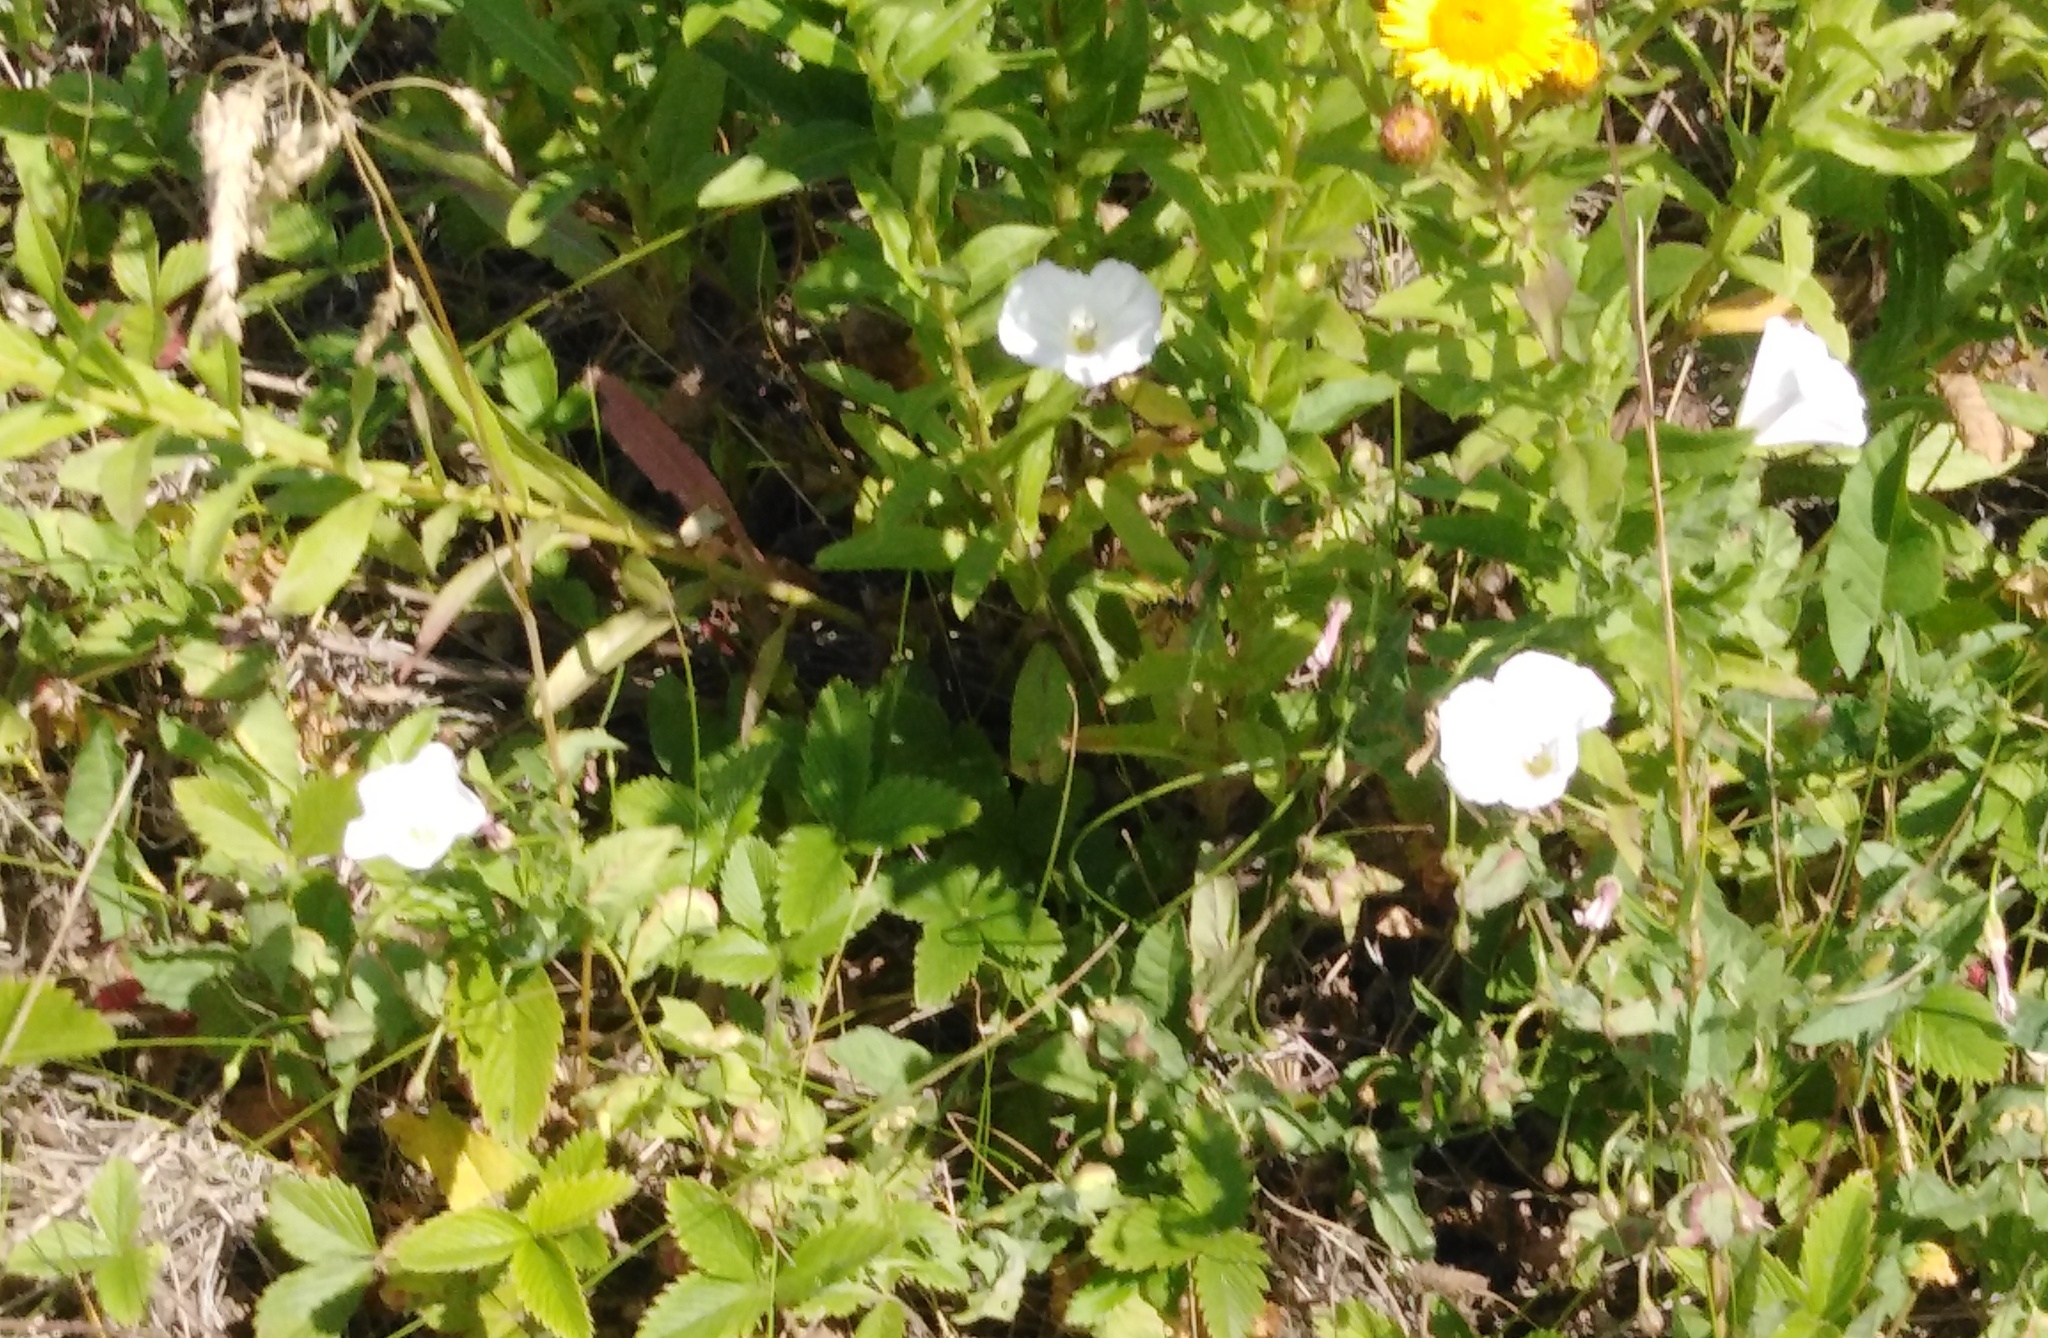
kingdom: Plantae
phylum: Tracheophyta
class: Magnoliopsida
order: Solanales
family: Convolvulaceae
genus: Convolvulus
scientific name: Convolvulus arvensis
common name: Field bindweed
